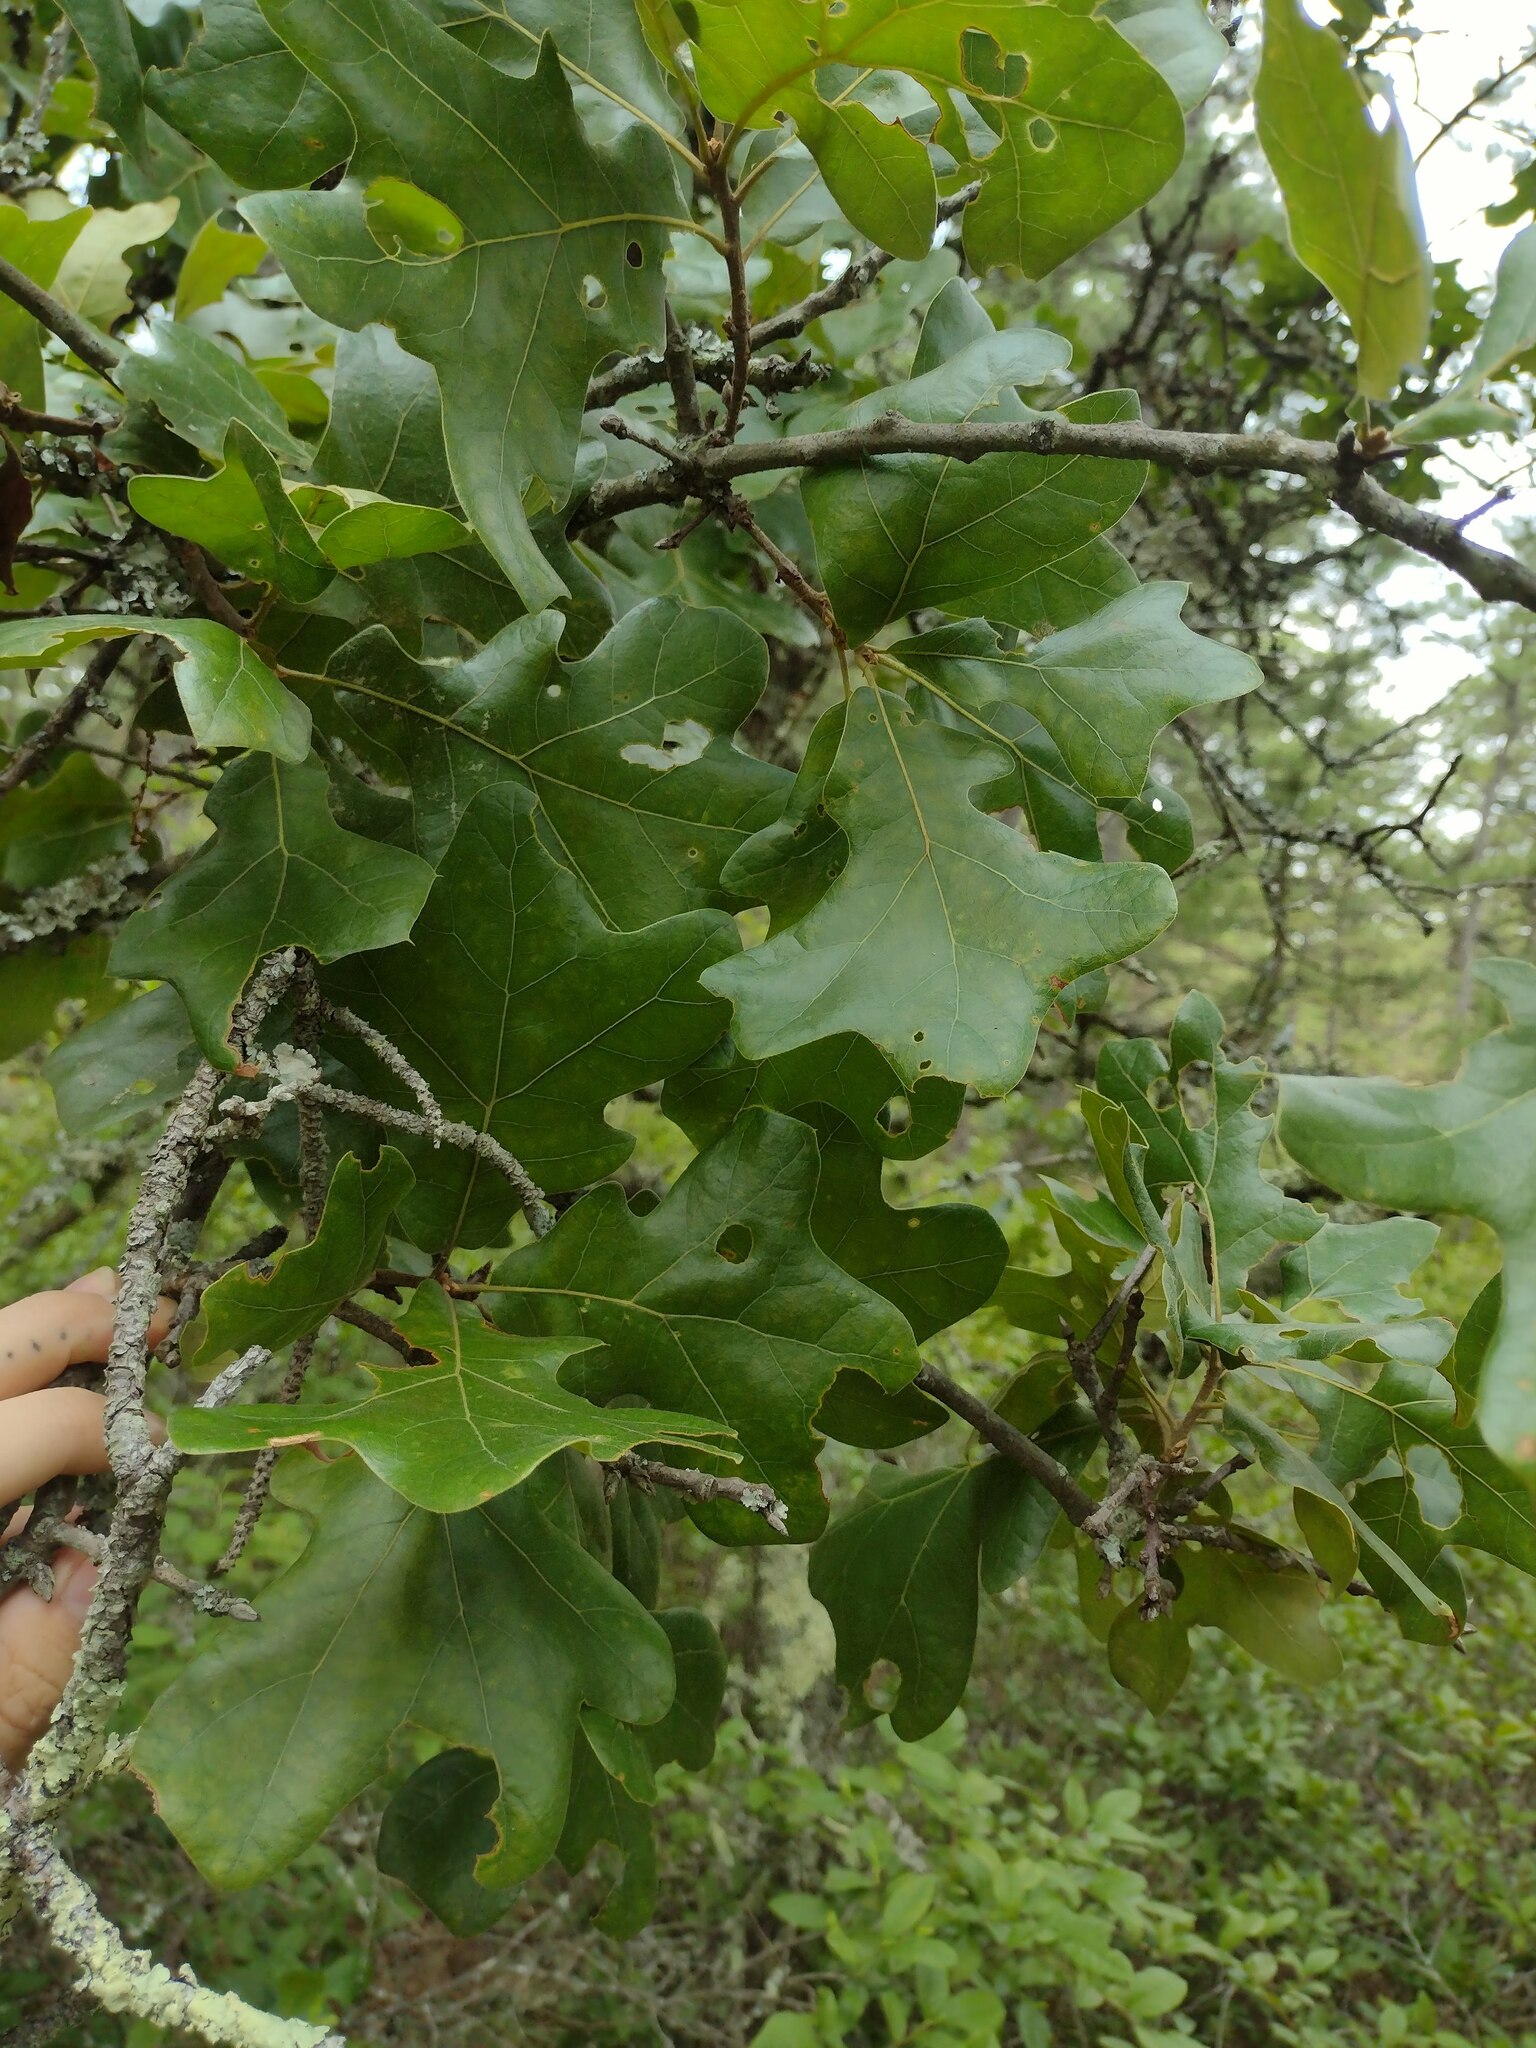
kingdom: Plantae
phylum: Tracheophyta
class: Magnoliopsida
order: Fagales
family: Fagaceae
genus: Quercus
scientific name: Quercus stellata
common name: Post oak
